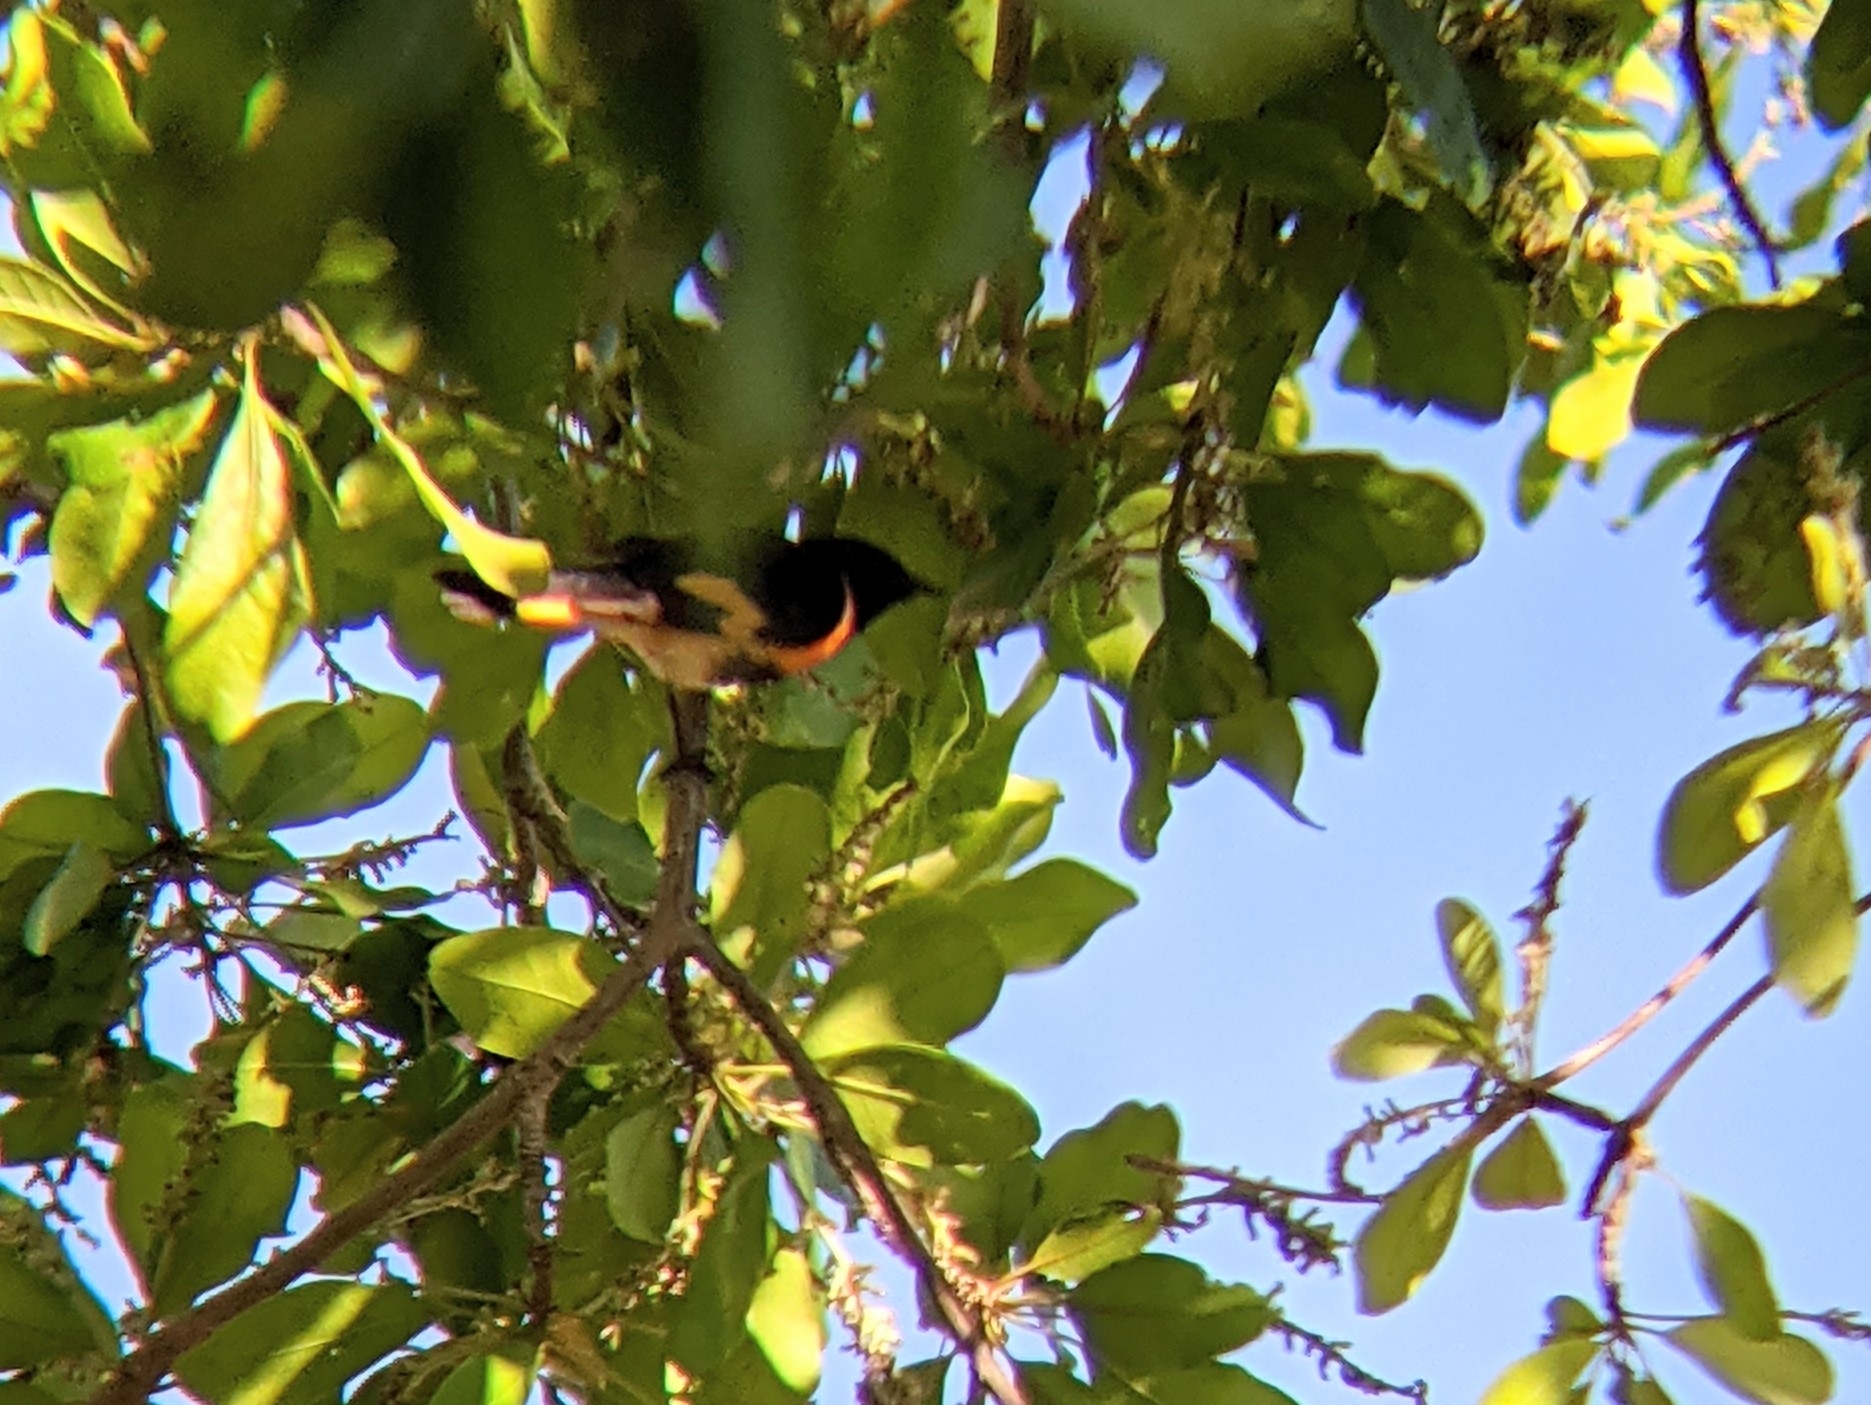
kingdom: Animalia
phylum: Chordata
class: Aves
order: Passeriformes
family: Parulidae
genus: Setophaga
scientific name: Setophaga ruticilla
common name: American redstart
